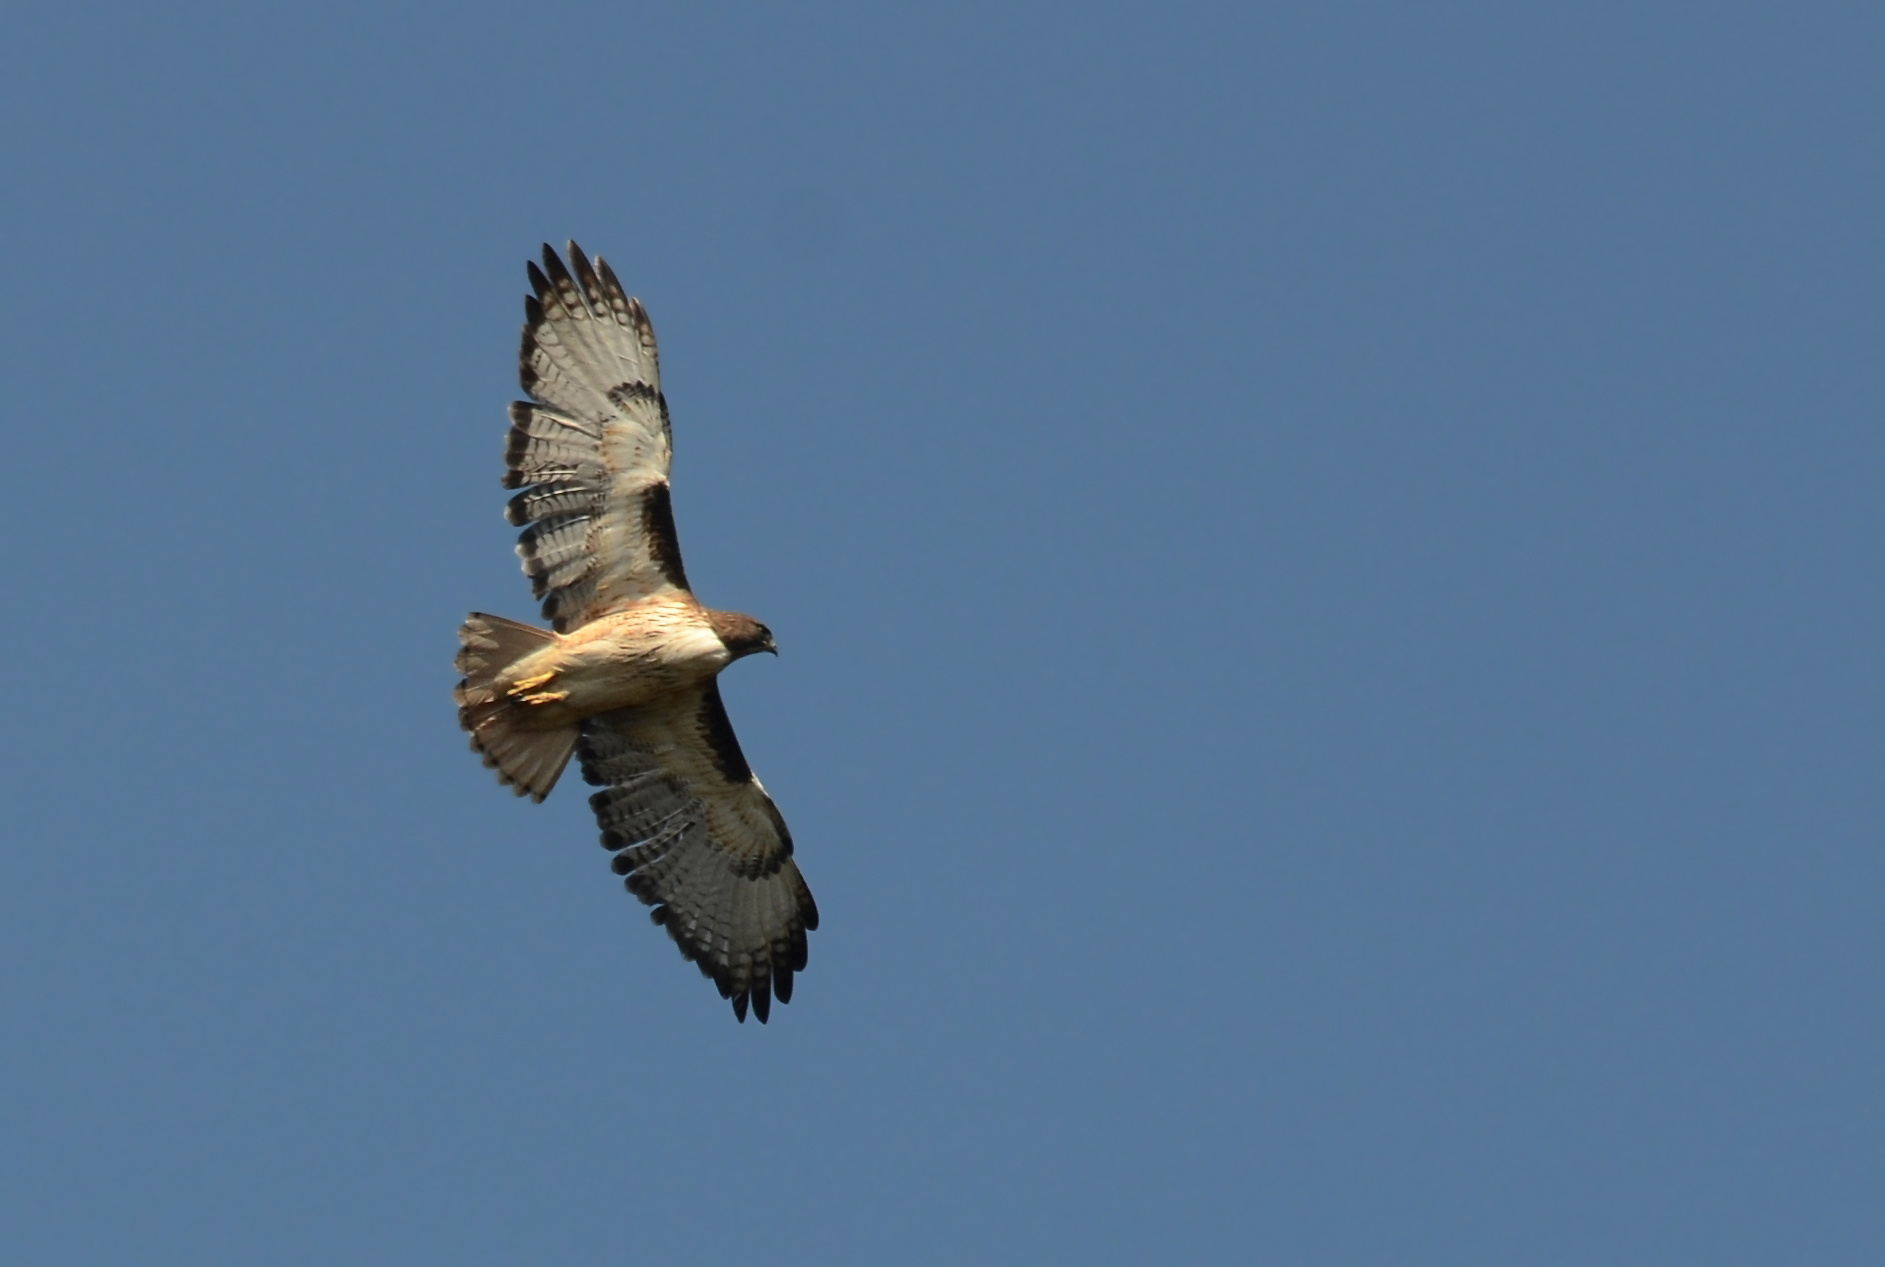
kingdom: Animalia
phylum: Chordata
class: Aves
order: Accipitriformes
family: Accipitridae
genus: Buteo
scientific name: Buteo jamaicensis
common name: Red-tailed hawk
